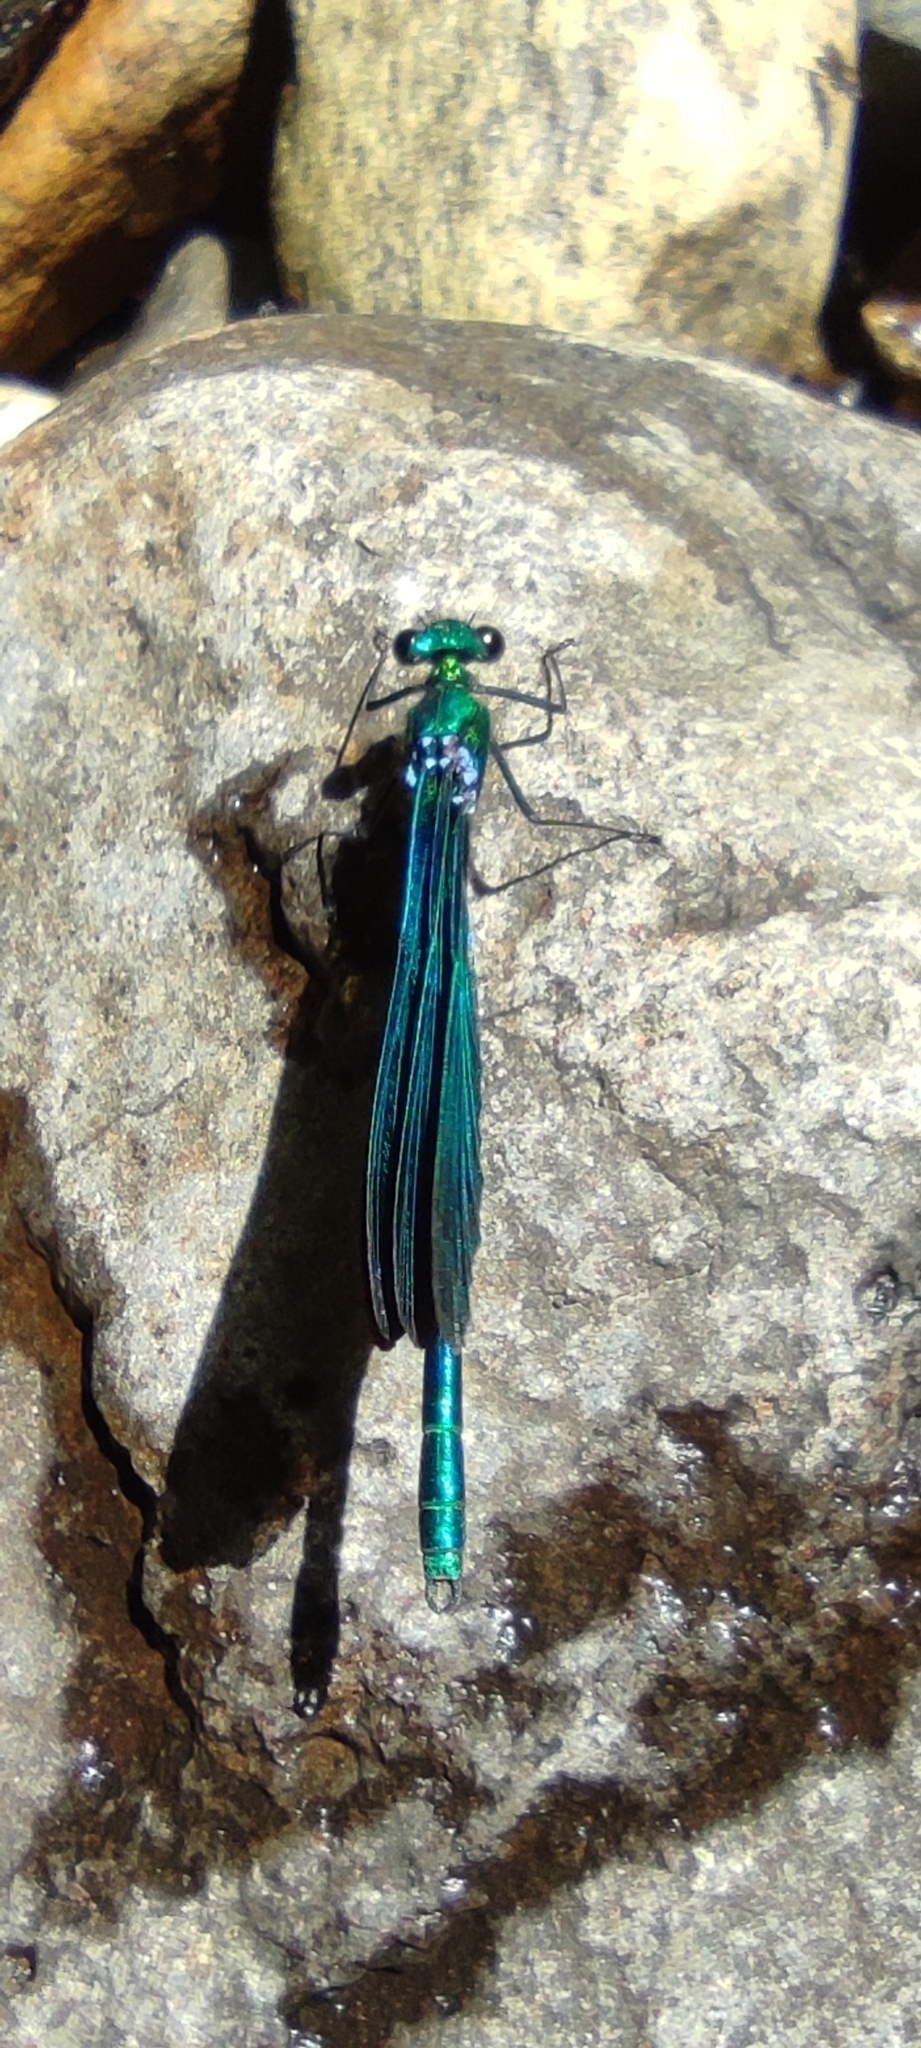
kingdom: Animalia
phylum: Arthropoda
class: Insecta
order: Odonata
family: Calopterygidae
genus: Calopteryx
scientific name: Calopteryx virgo
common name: Beautiful demoiselle
